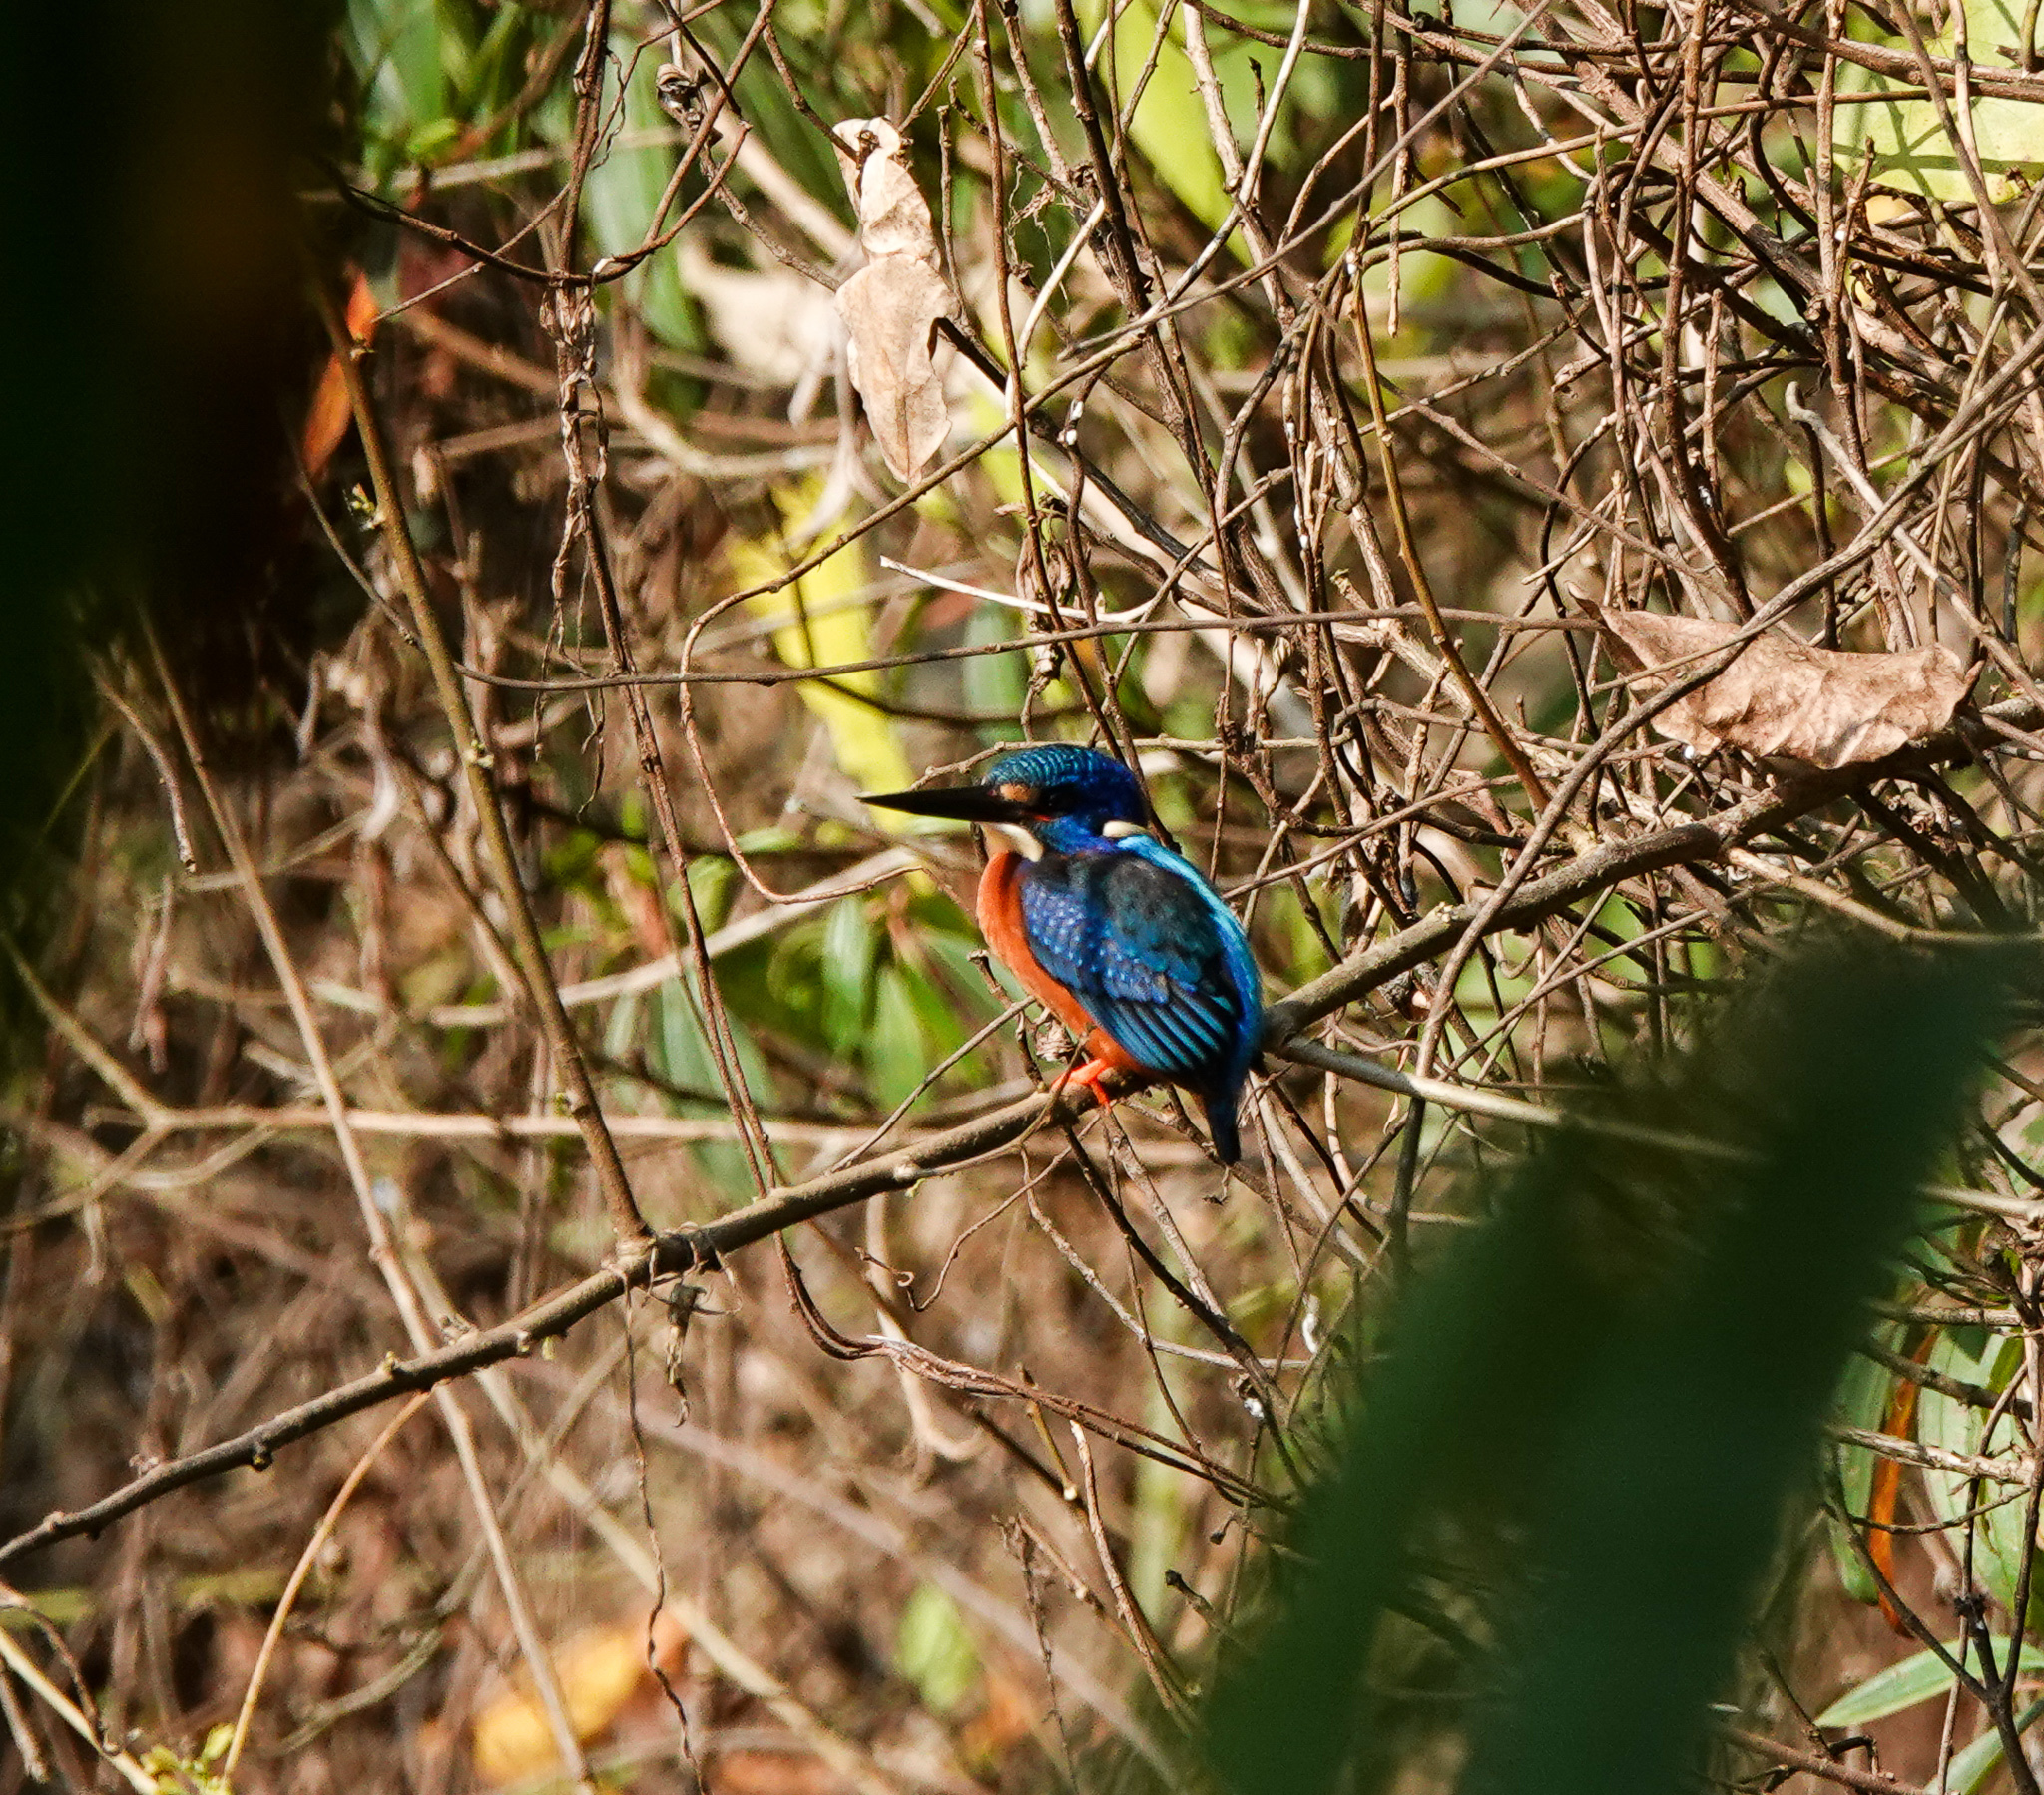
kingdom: Animalia
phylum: Chordata
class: Aves
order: Coraciiformes
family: Alcedinidae
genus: Alcedo
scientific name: Alcedo meninting
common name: Blue-eared kingfisher
